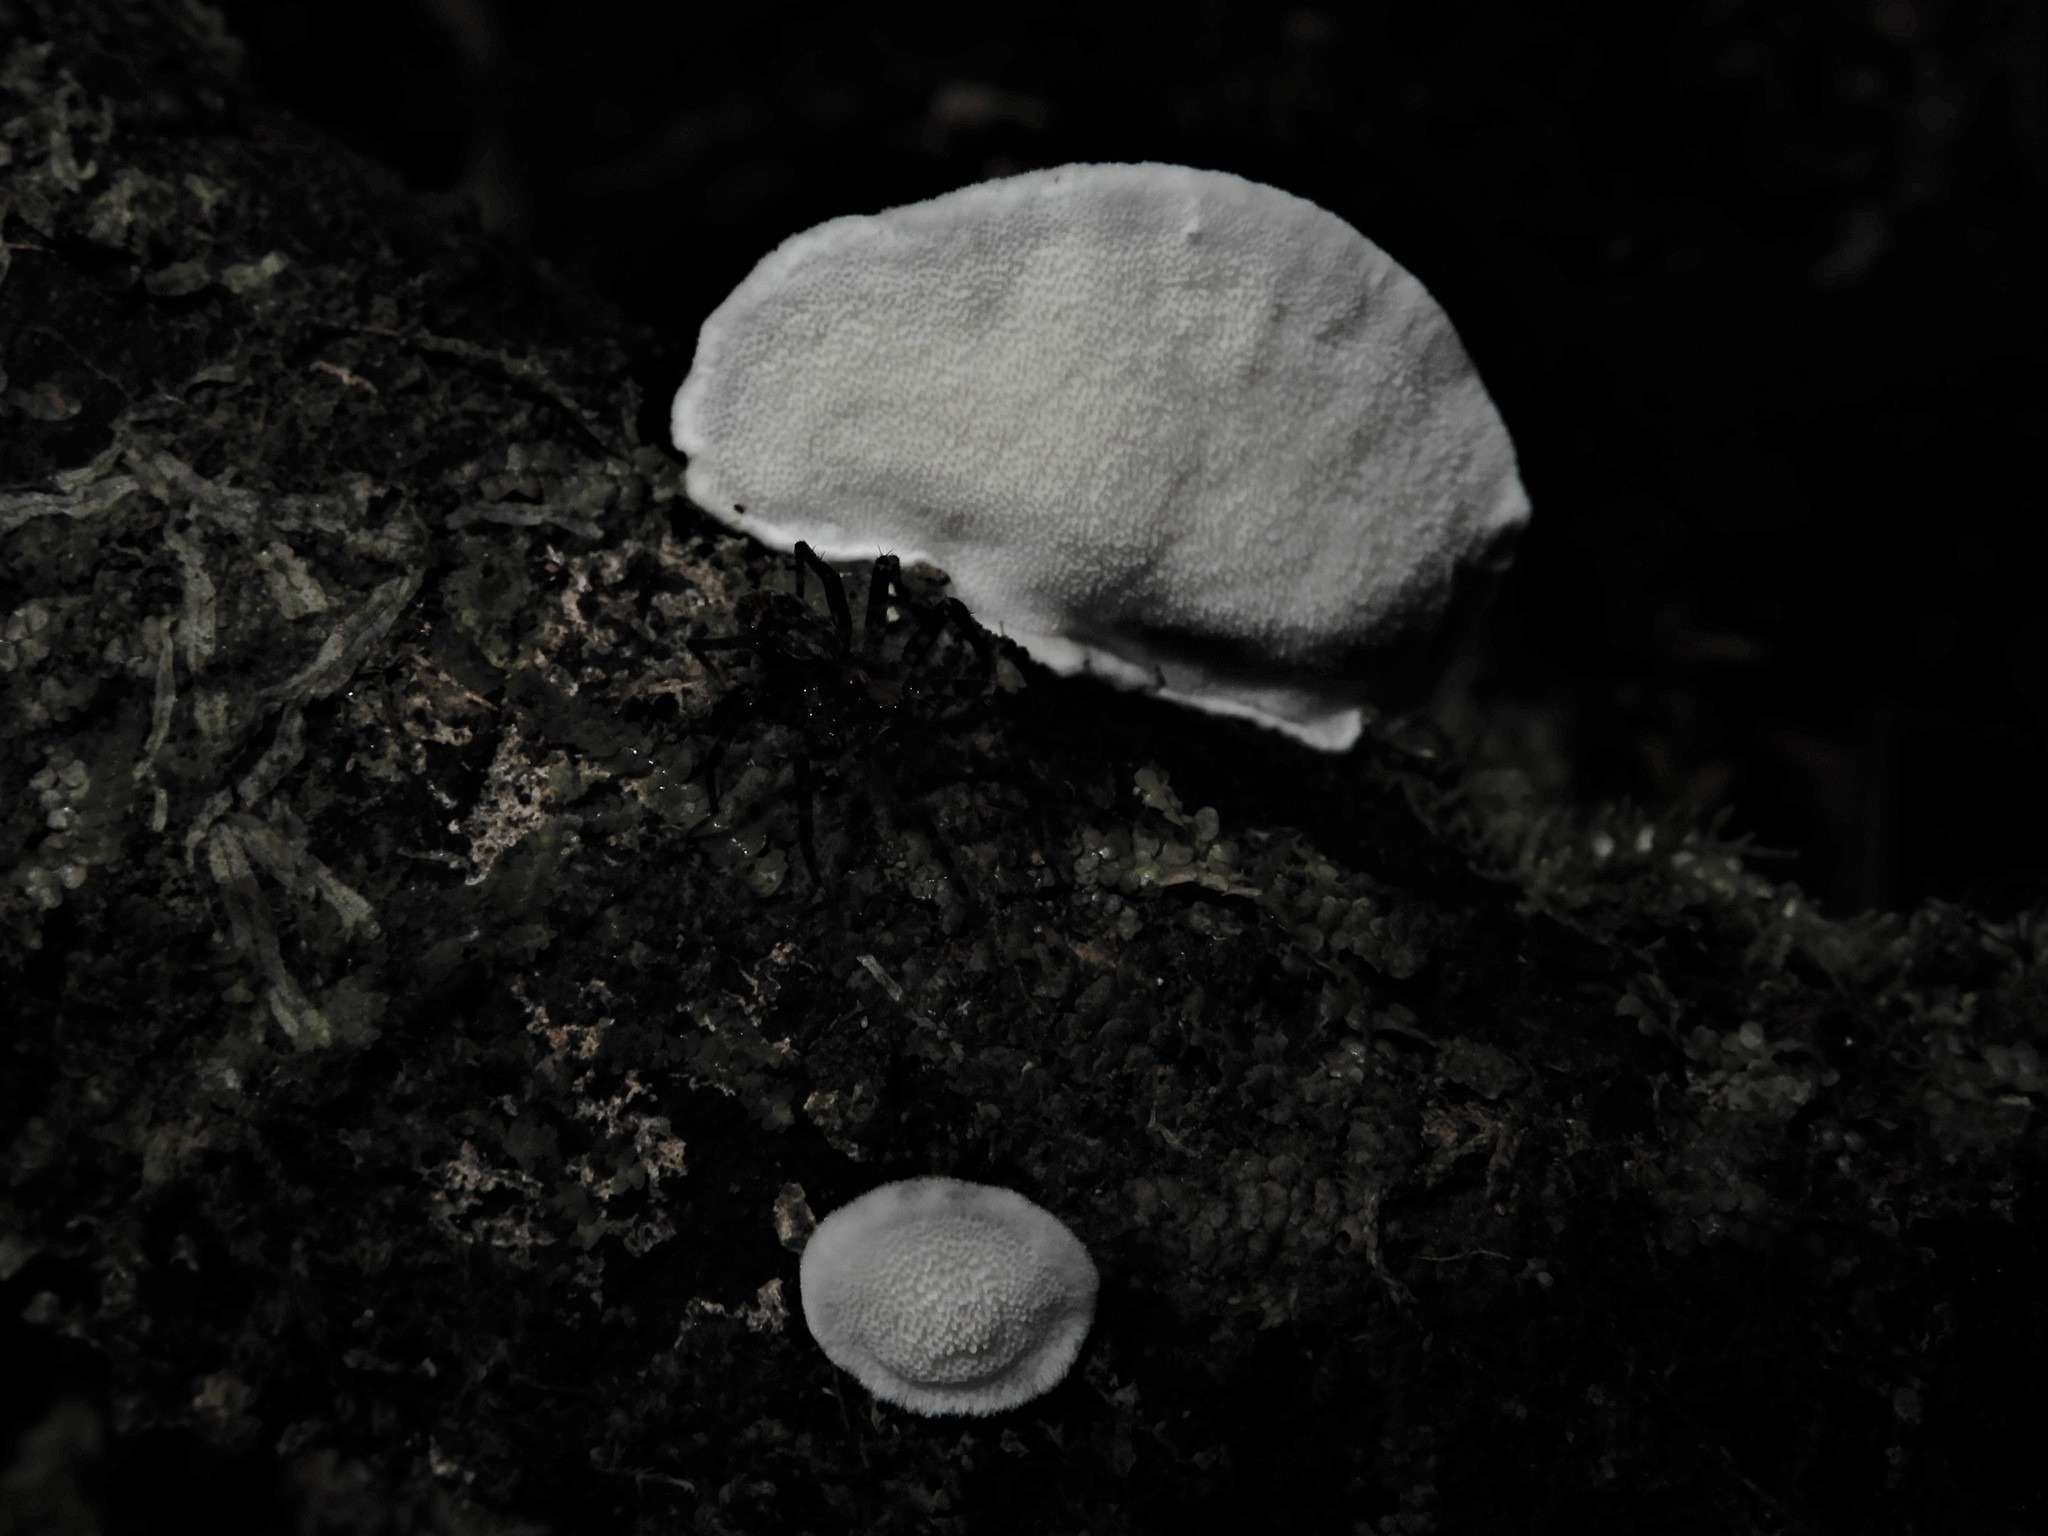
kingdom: Fungi
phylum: Basidiomycota
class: Agaricomycetes
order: Polyporales
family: Incrustoporiaceae
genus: Tyromyces
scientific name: Tyromyces atrostrigosus
